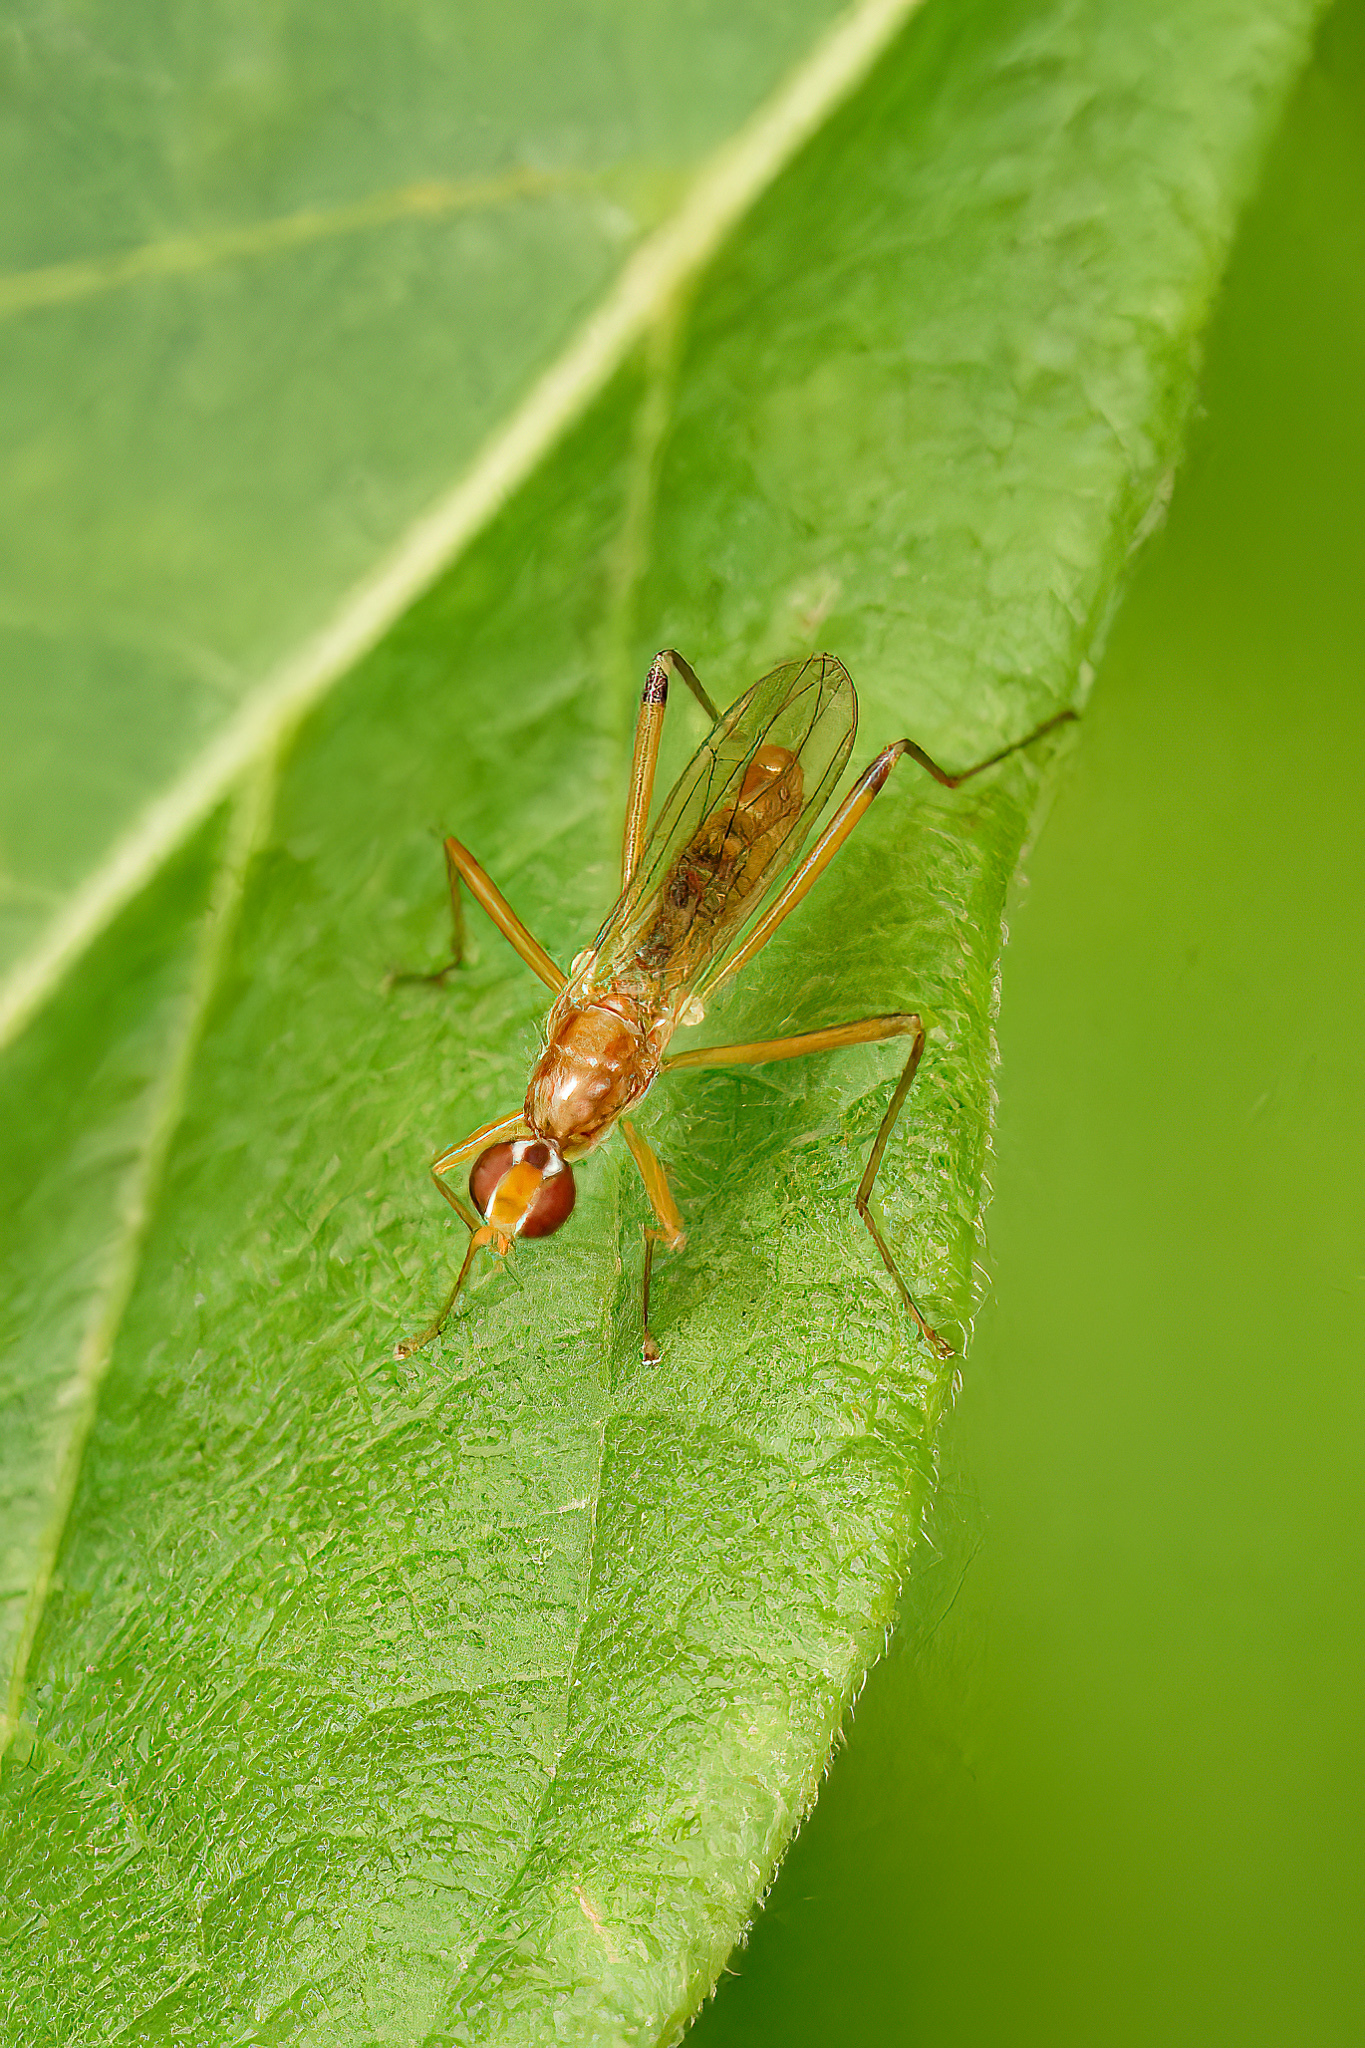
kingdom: Animalia
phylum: Arthropoda
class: Insecta
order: Diptera
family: Micropezidae
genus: Compsobata
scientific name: Compsobata univitta
